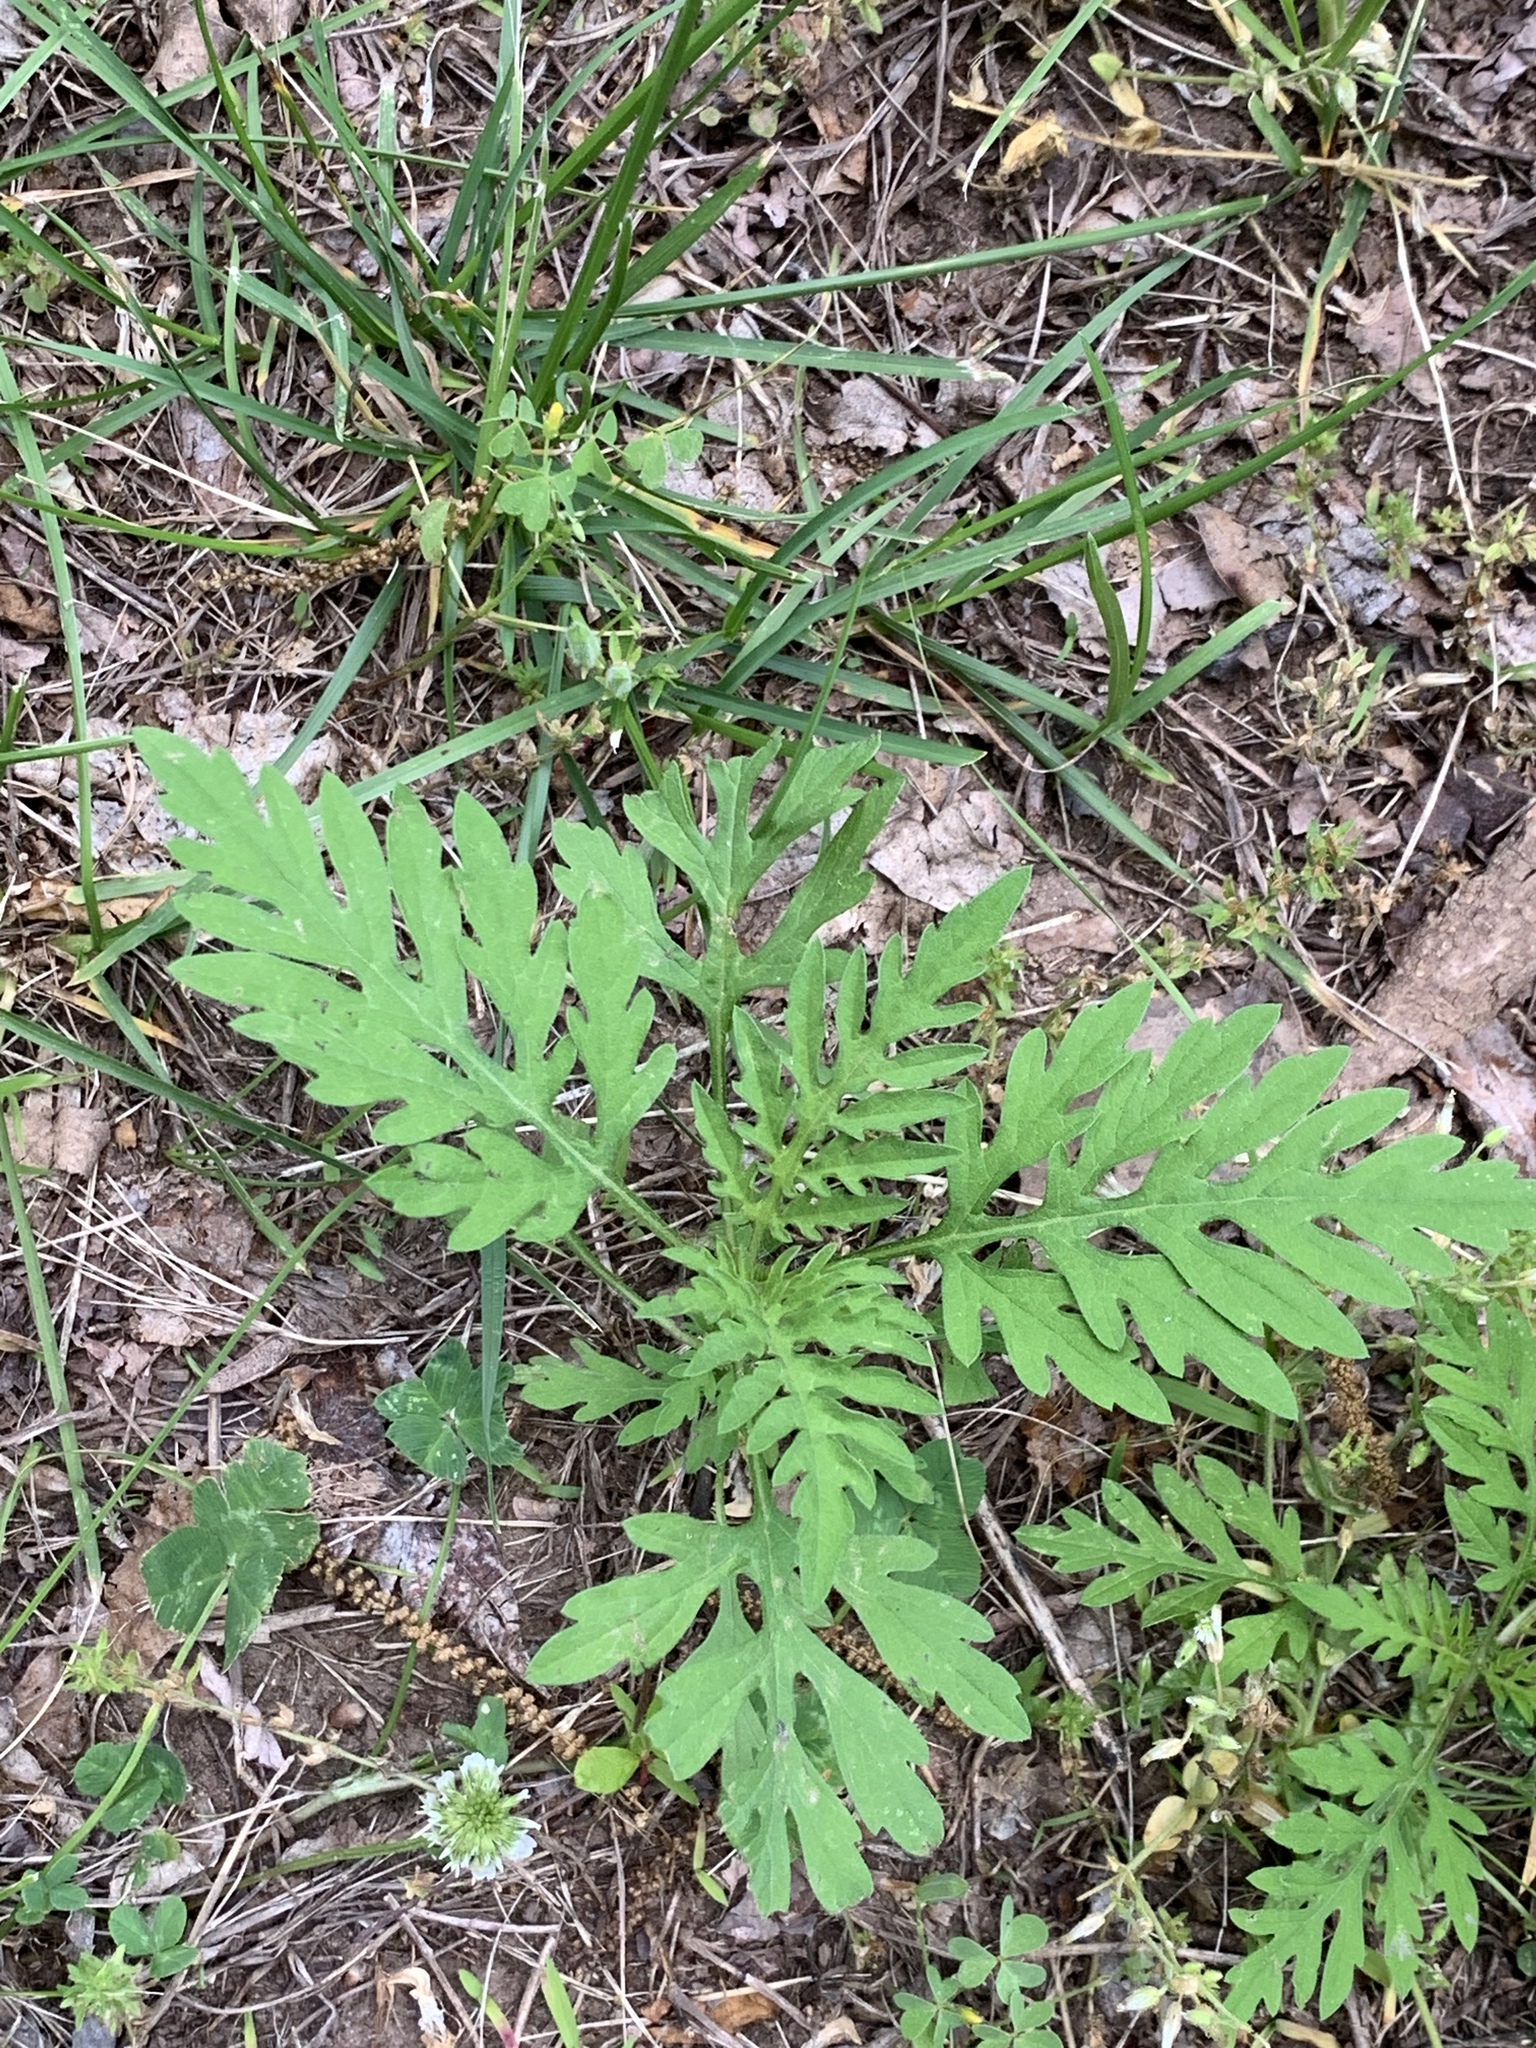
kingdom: Plantae
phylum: Tracheophyta
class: Magnoliopsida
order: Asterales
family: Asteraceae
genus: Ambrosia
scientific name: Ambrosia artemisiifolia
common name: Annual ragweed
